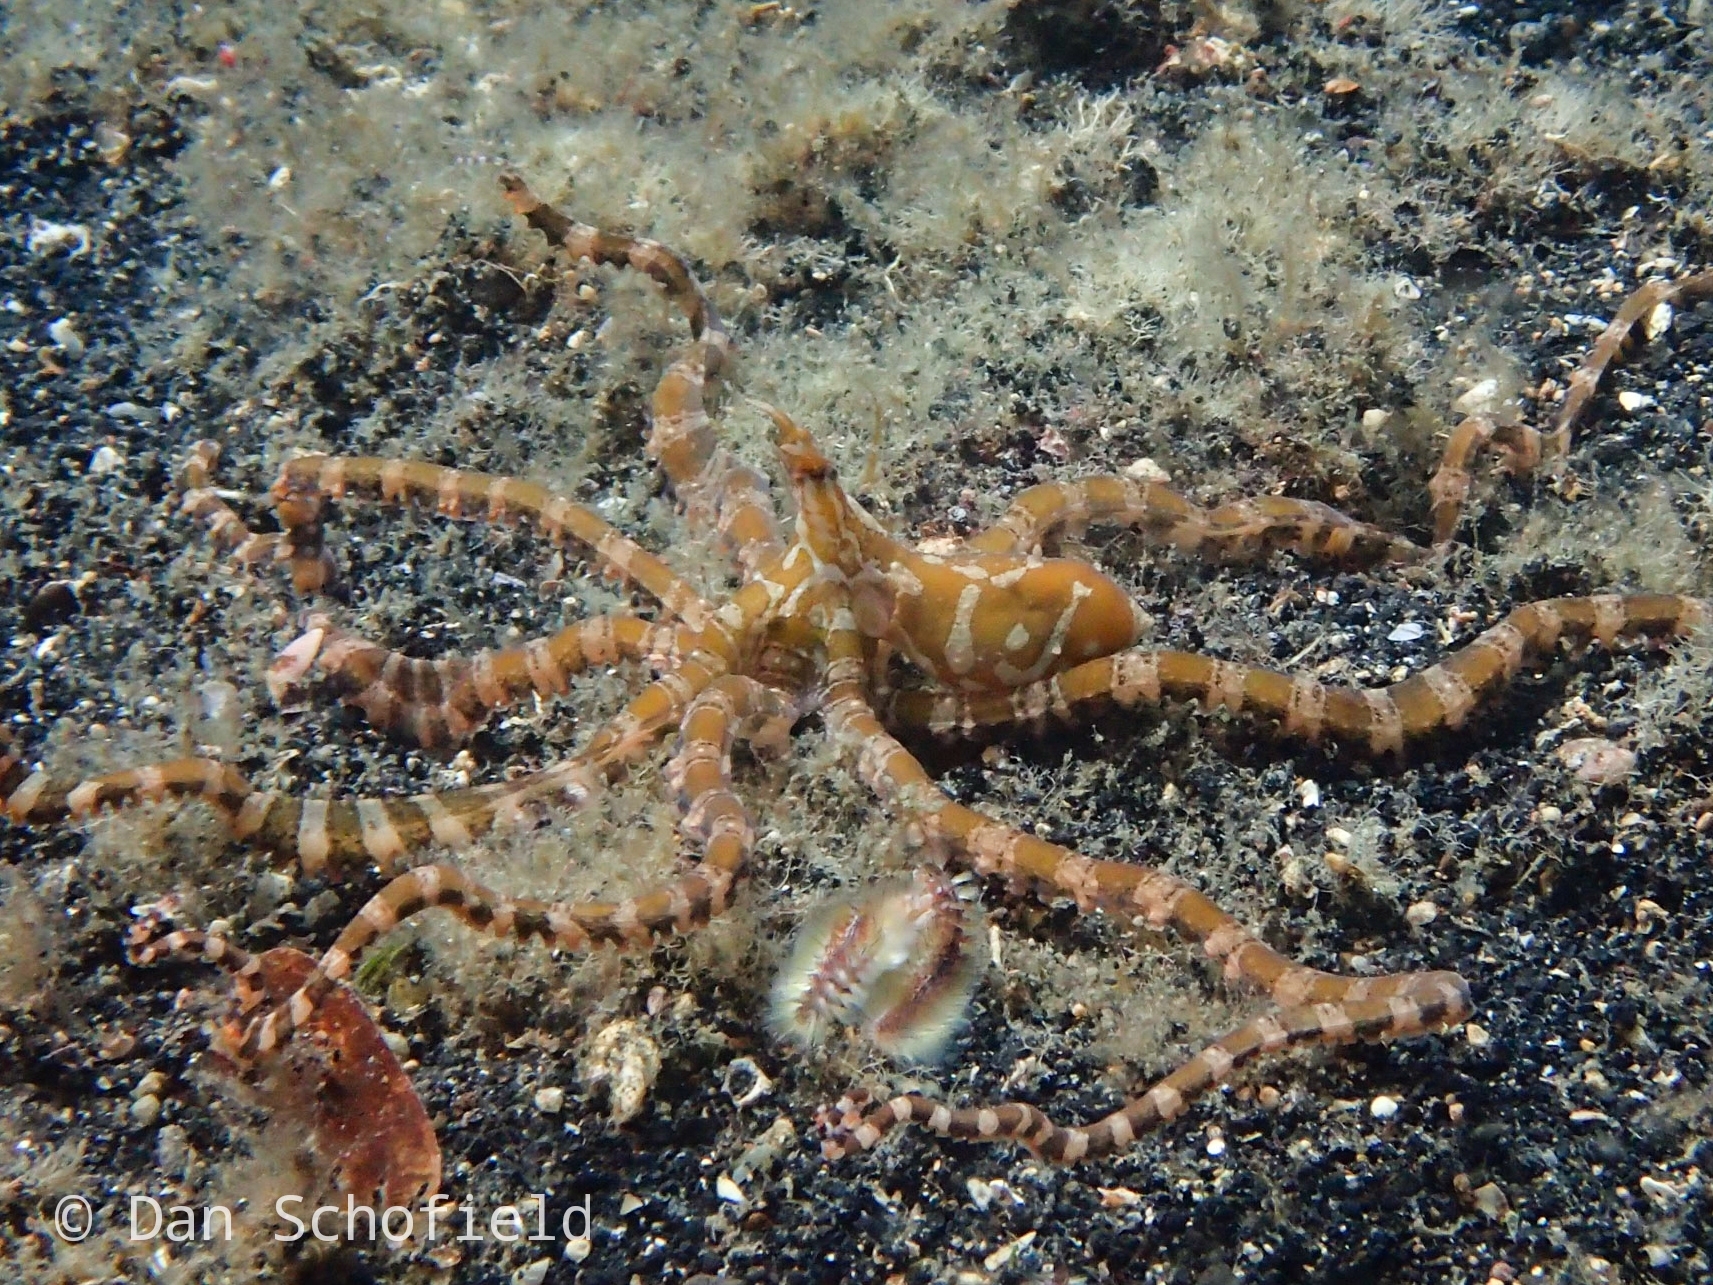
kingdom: Animalia
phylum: Mollusca
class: Cephalopoda
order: Octopoda
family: Octopodidae
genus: Wunderpus
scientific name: Wunderpus photogenicus
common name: Wunderpus
